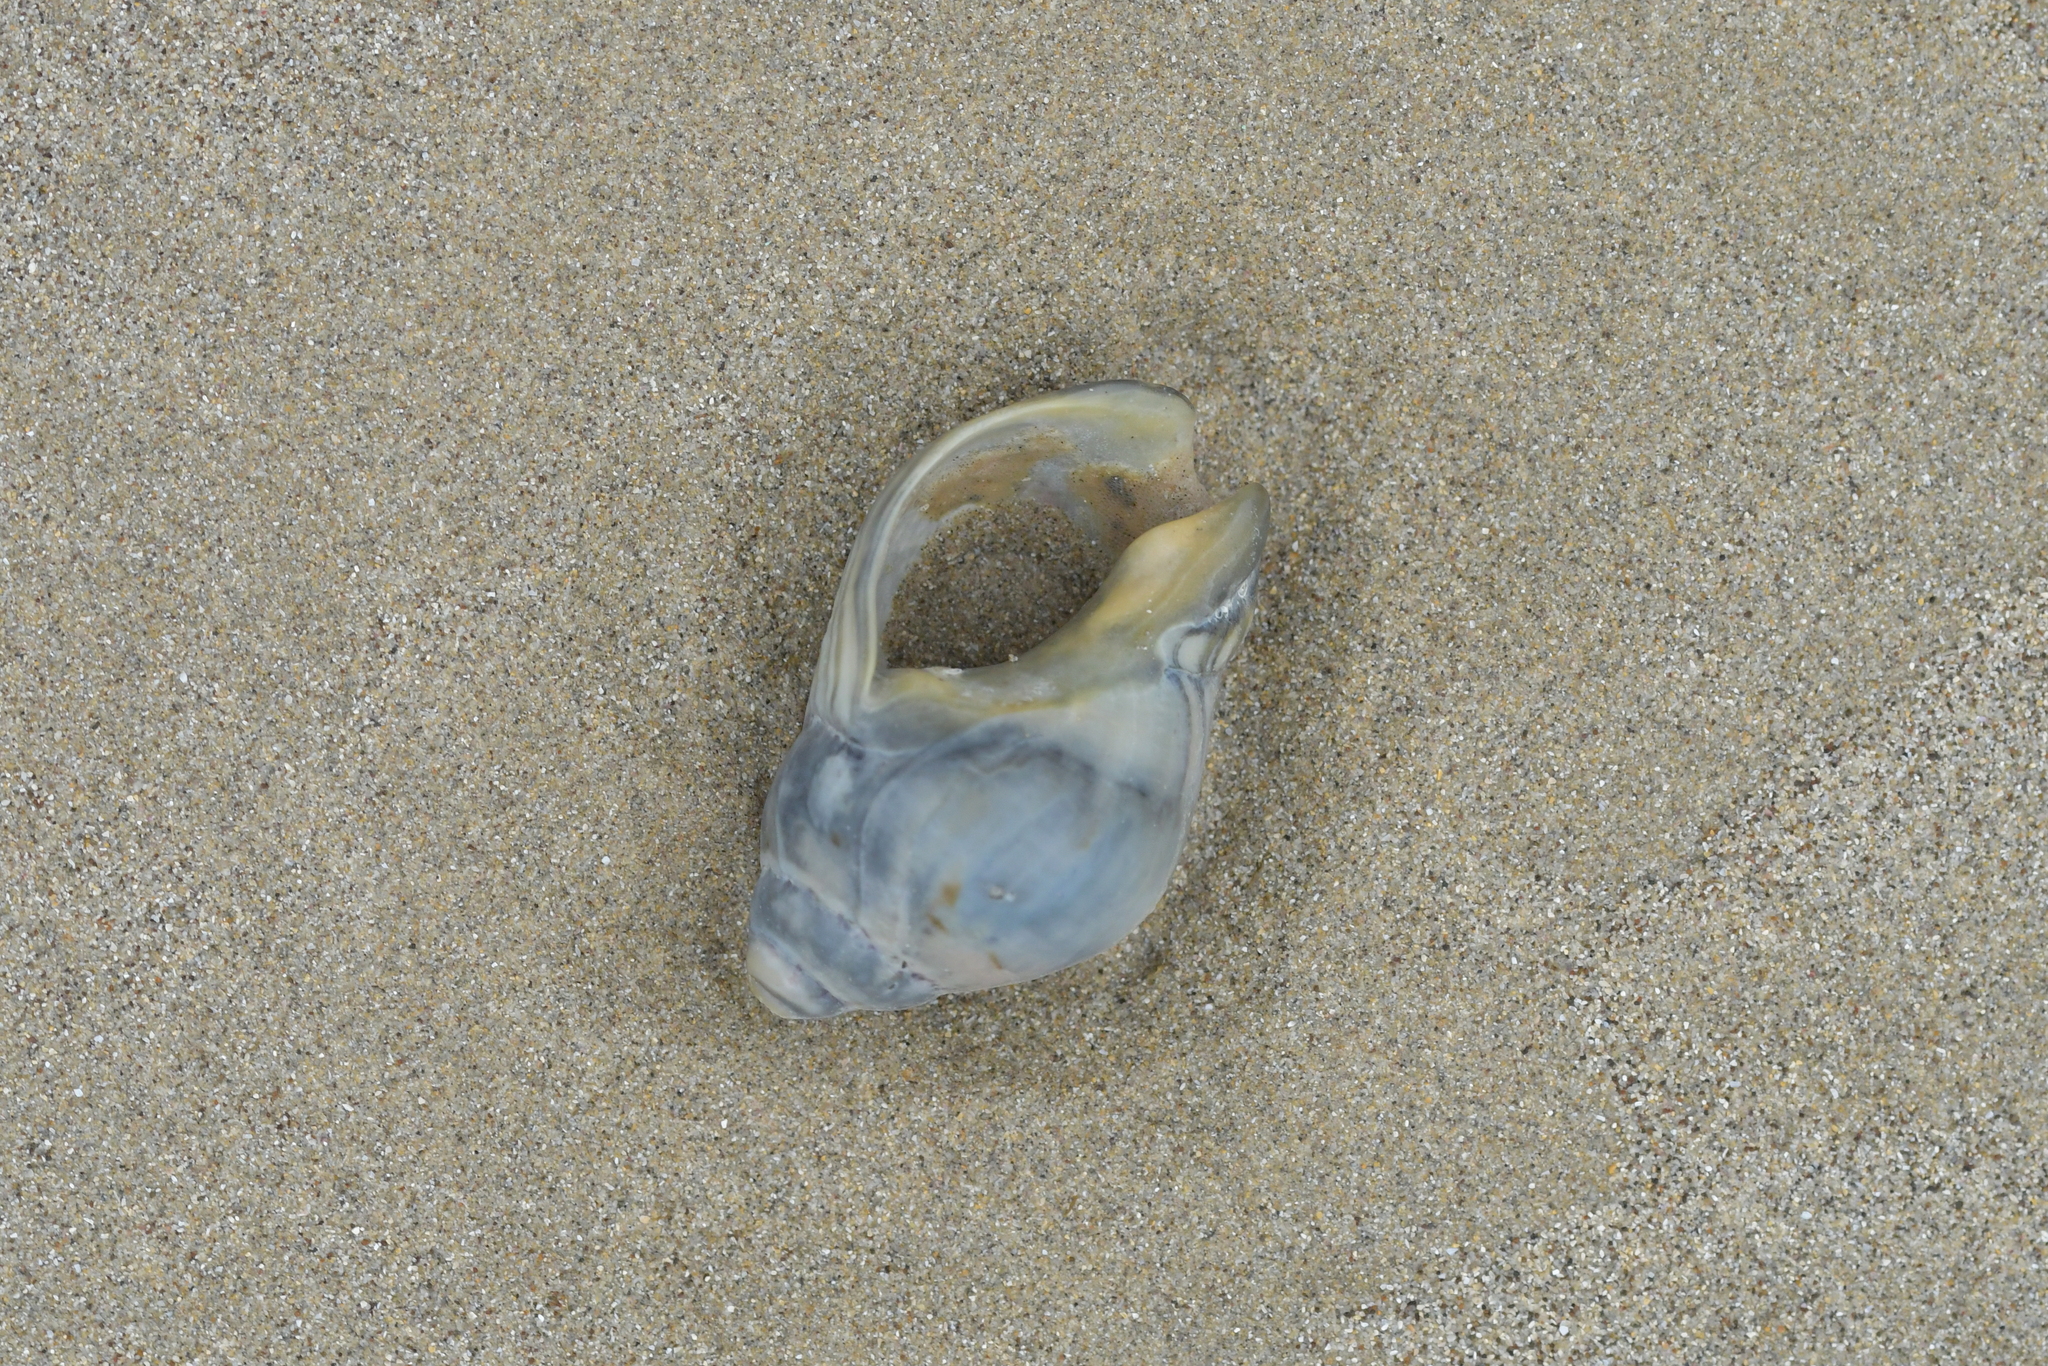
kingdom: Animalia
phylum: Mollusca
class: Gastropoda
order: Neogastropoda
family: Cominellidae
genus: Cominella
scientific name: Cominella adspersa
